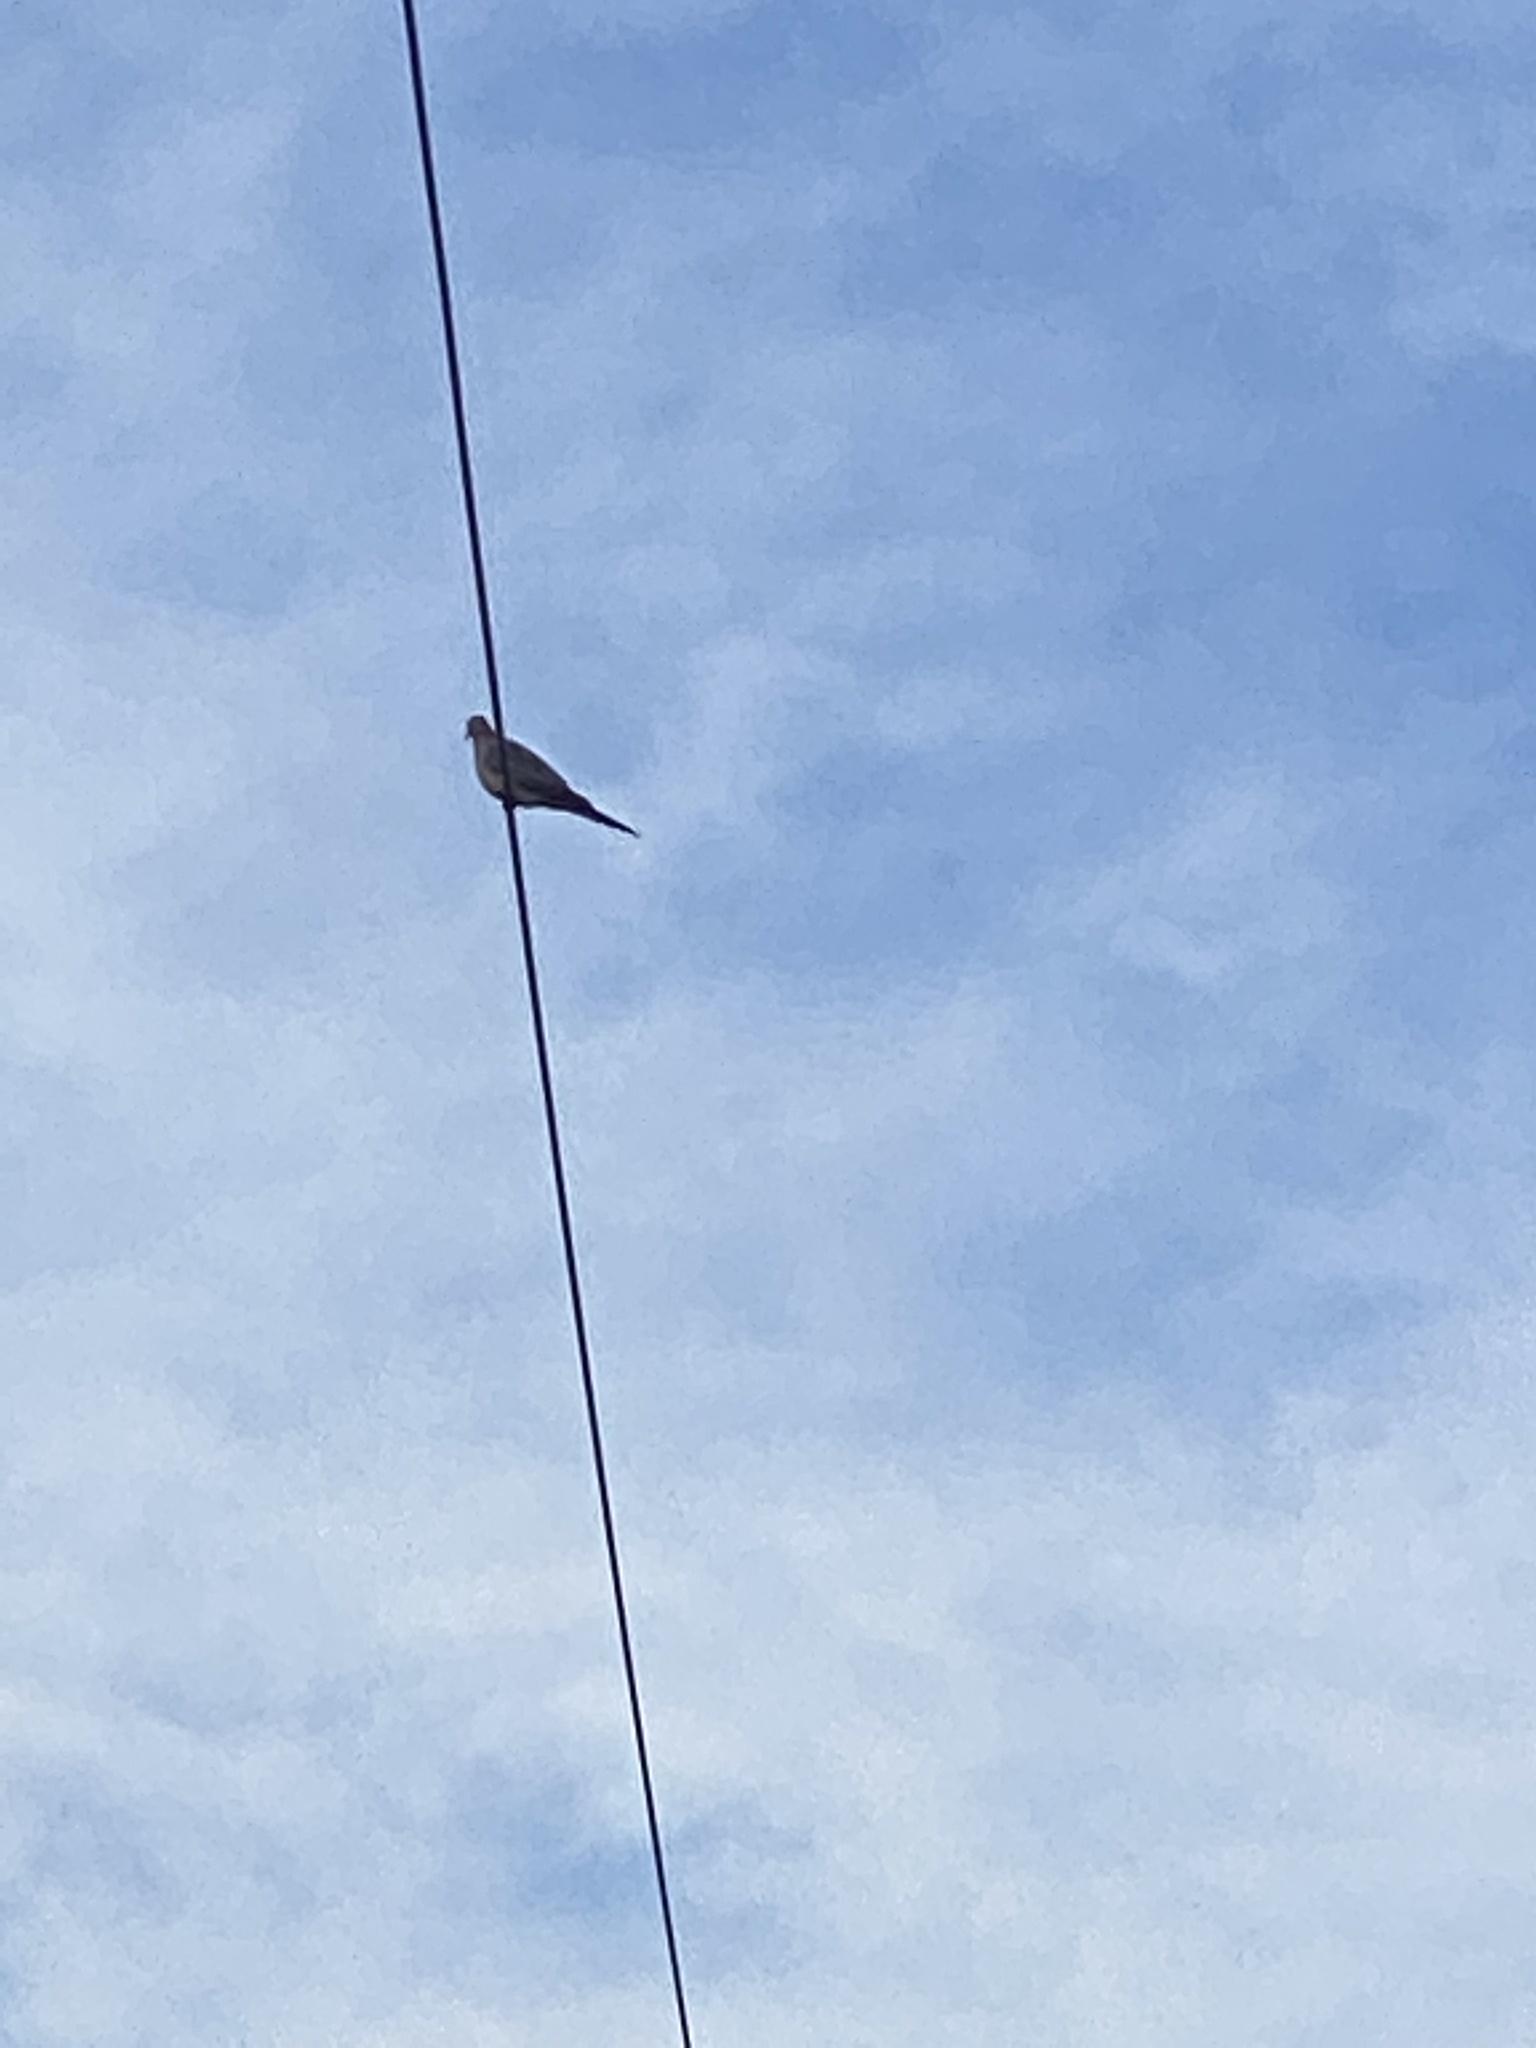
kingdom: Animalia
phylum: Chordata
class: Aves
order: Columbiformes
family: Columbidae
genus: Zenaida
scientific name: Zenaida macroura
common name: Mourning dove
